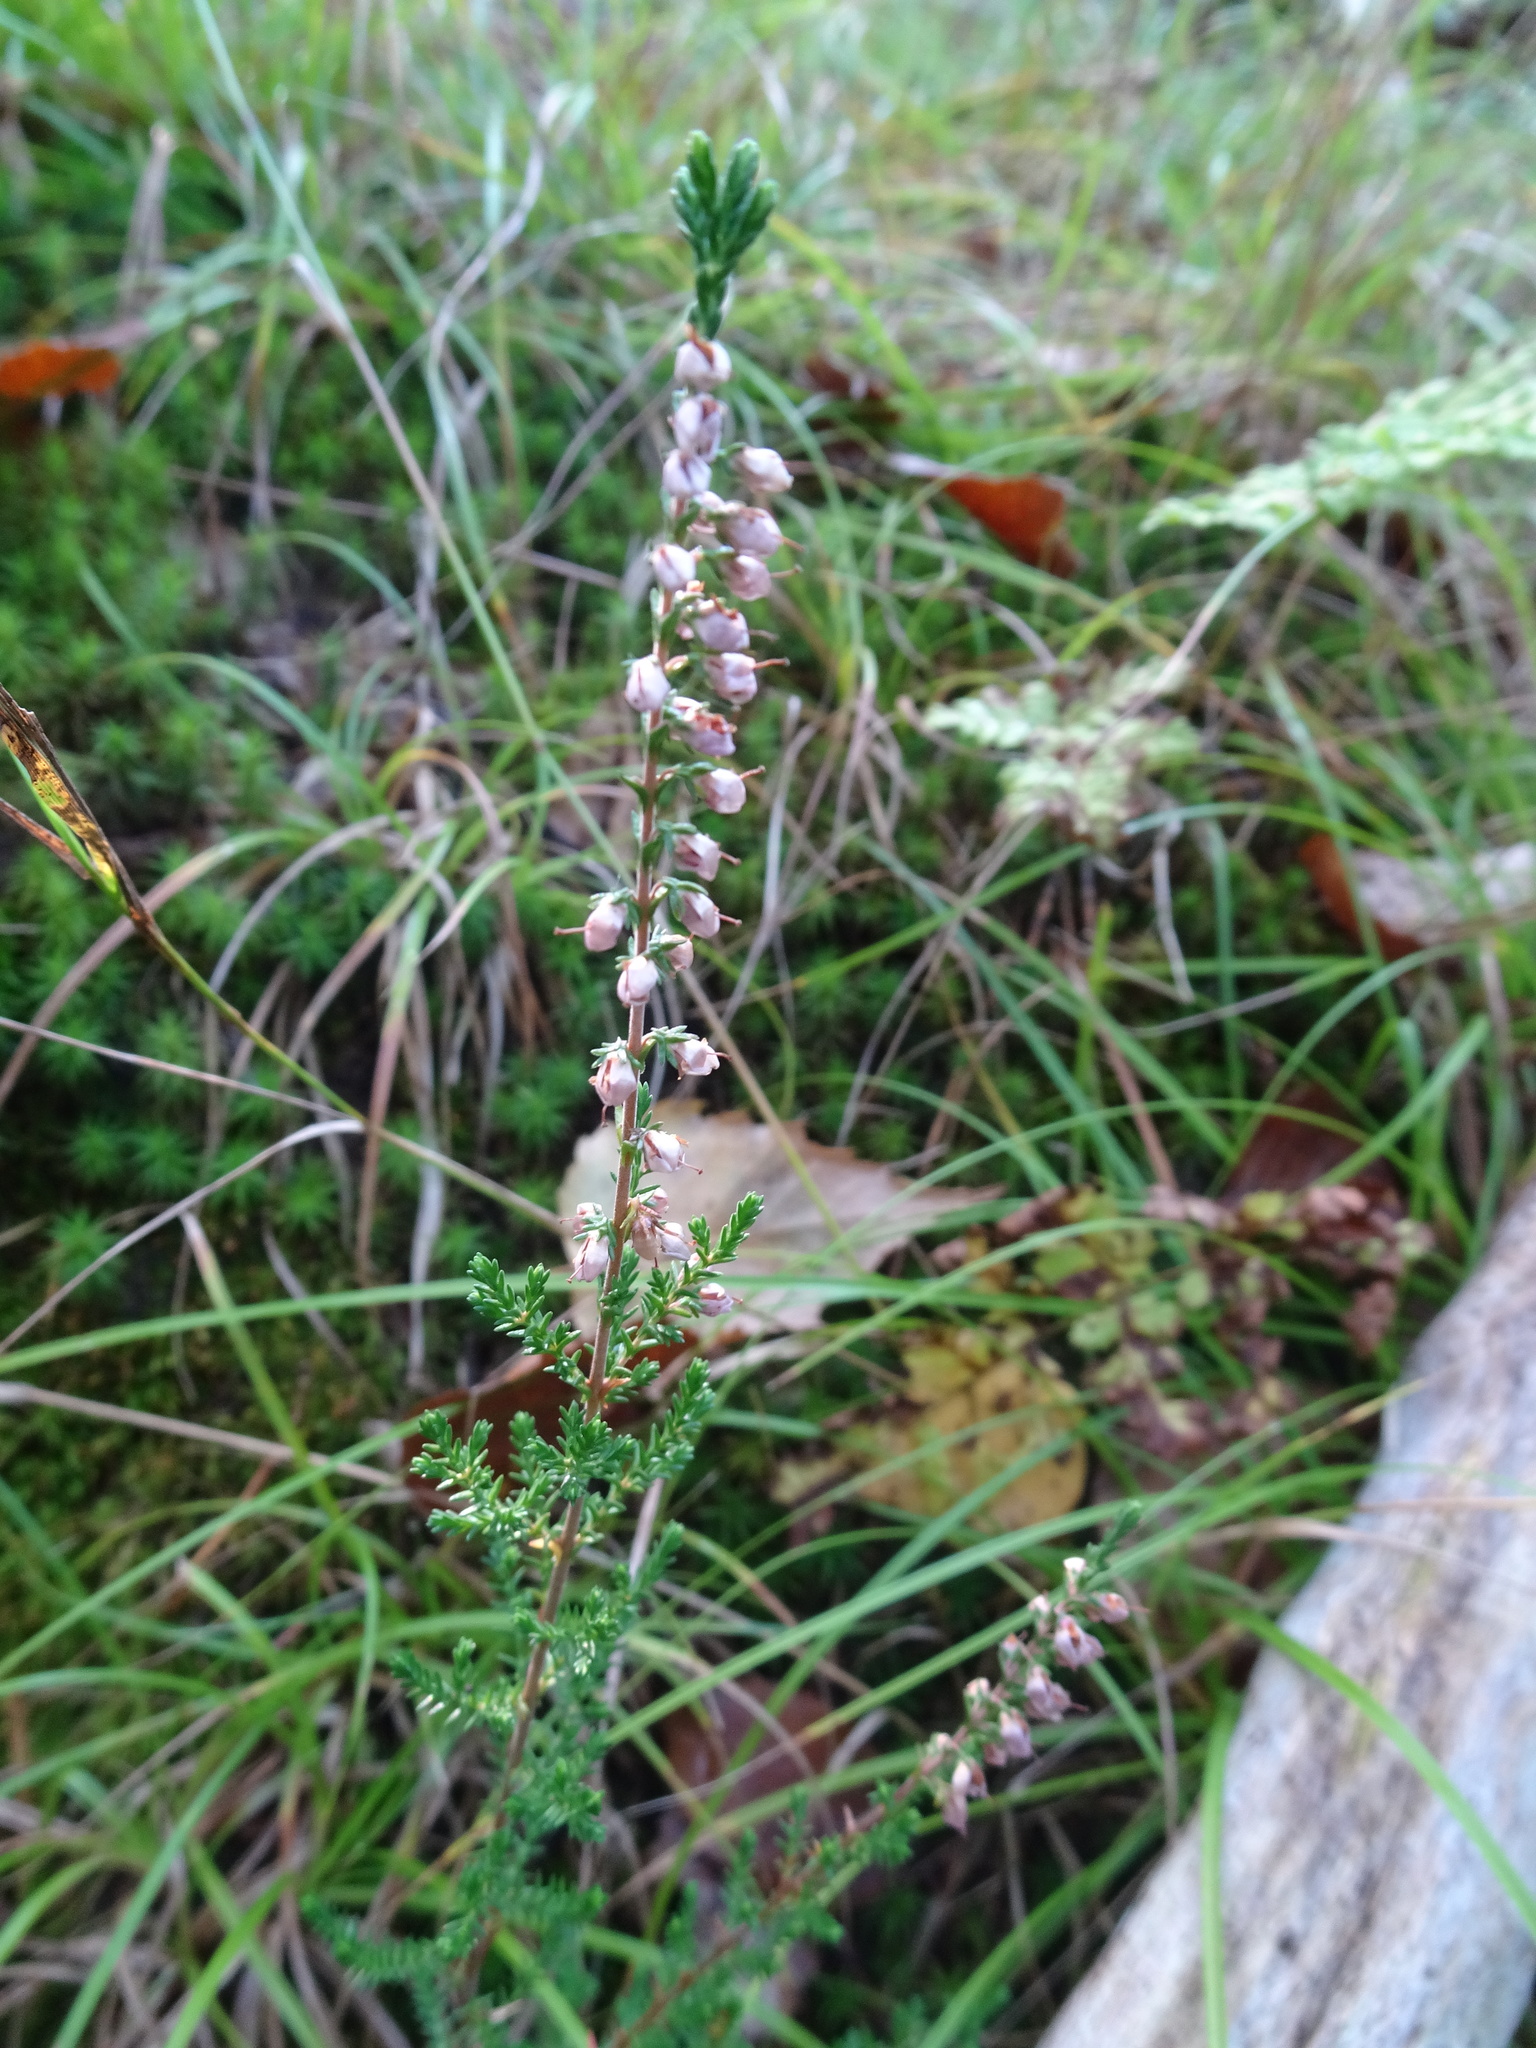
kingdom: Plantae
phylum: Tracheophyta
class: Magnoliopsida
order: Ericales
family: Ericaceae
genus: Calluna
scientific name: Calluna vulgaris
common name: Heather
